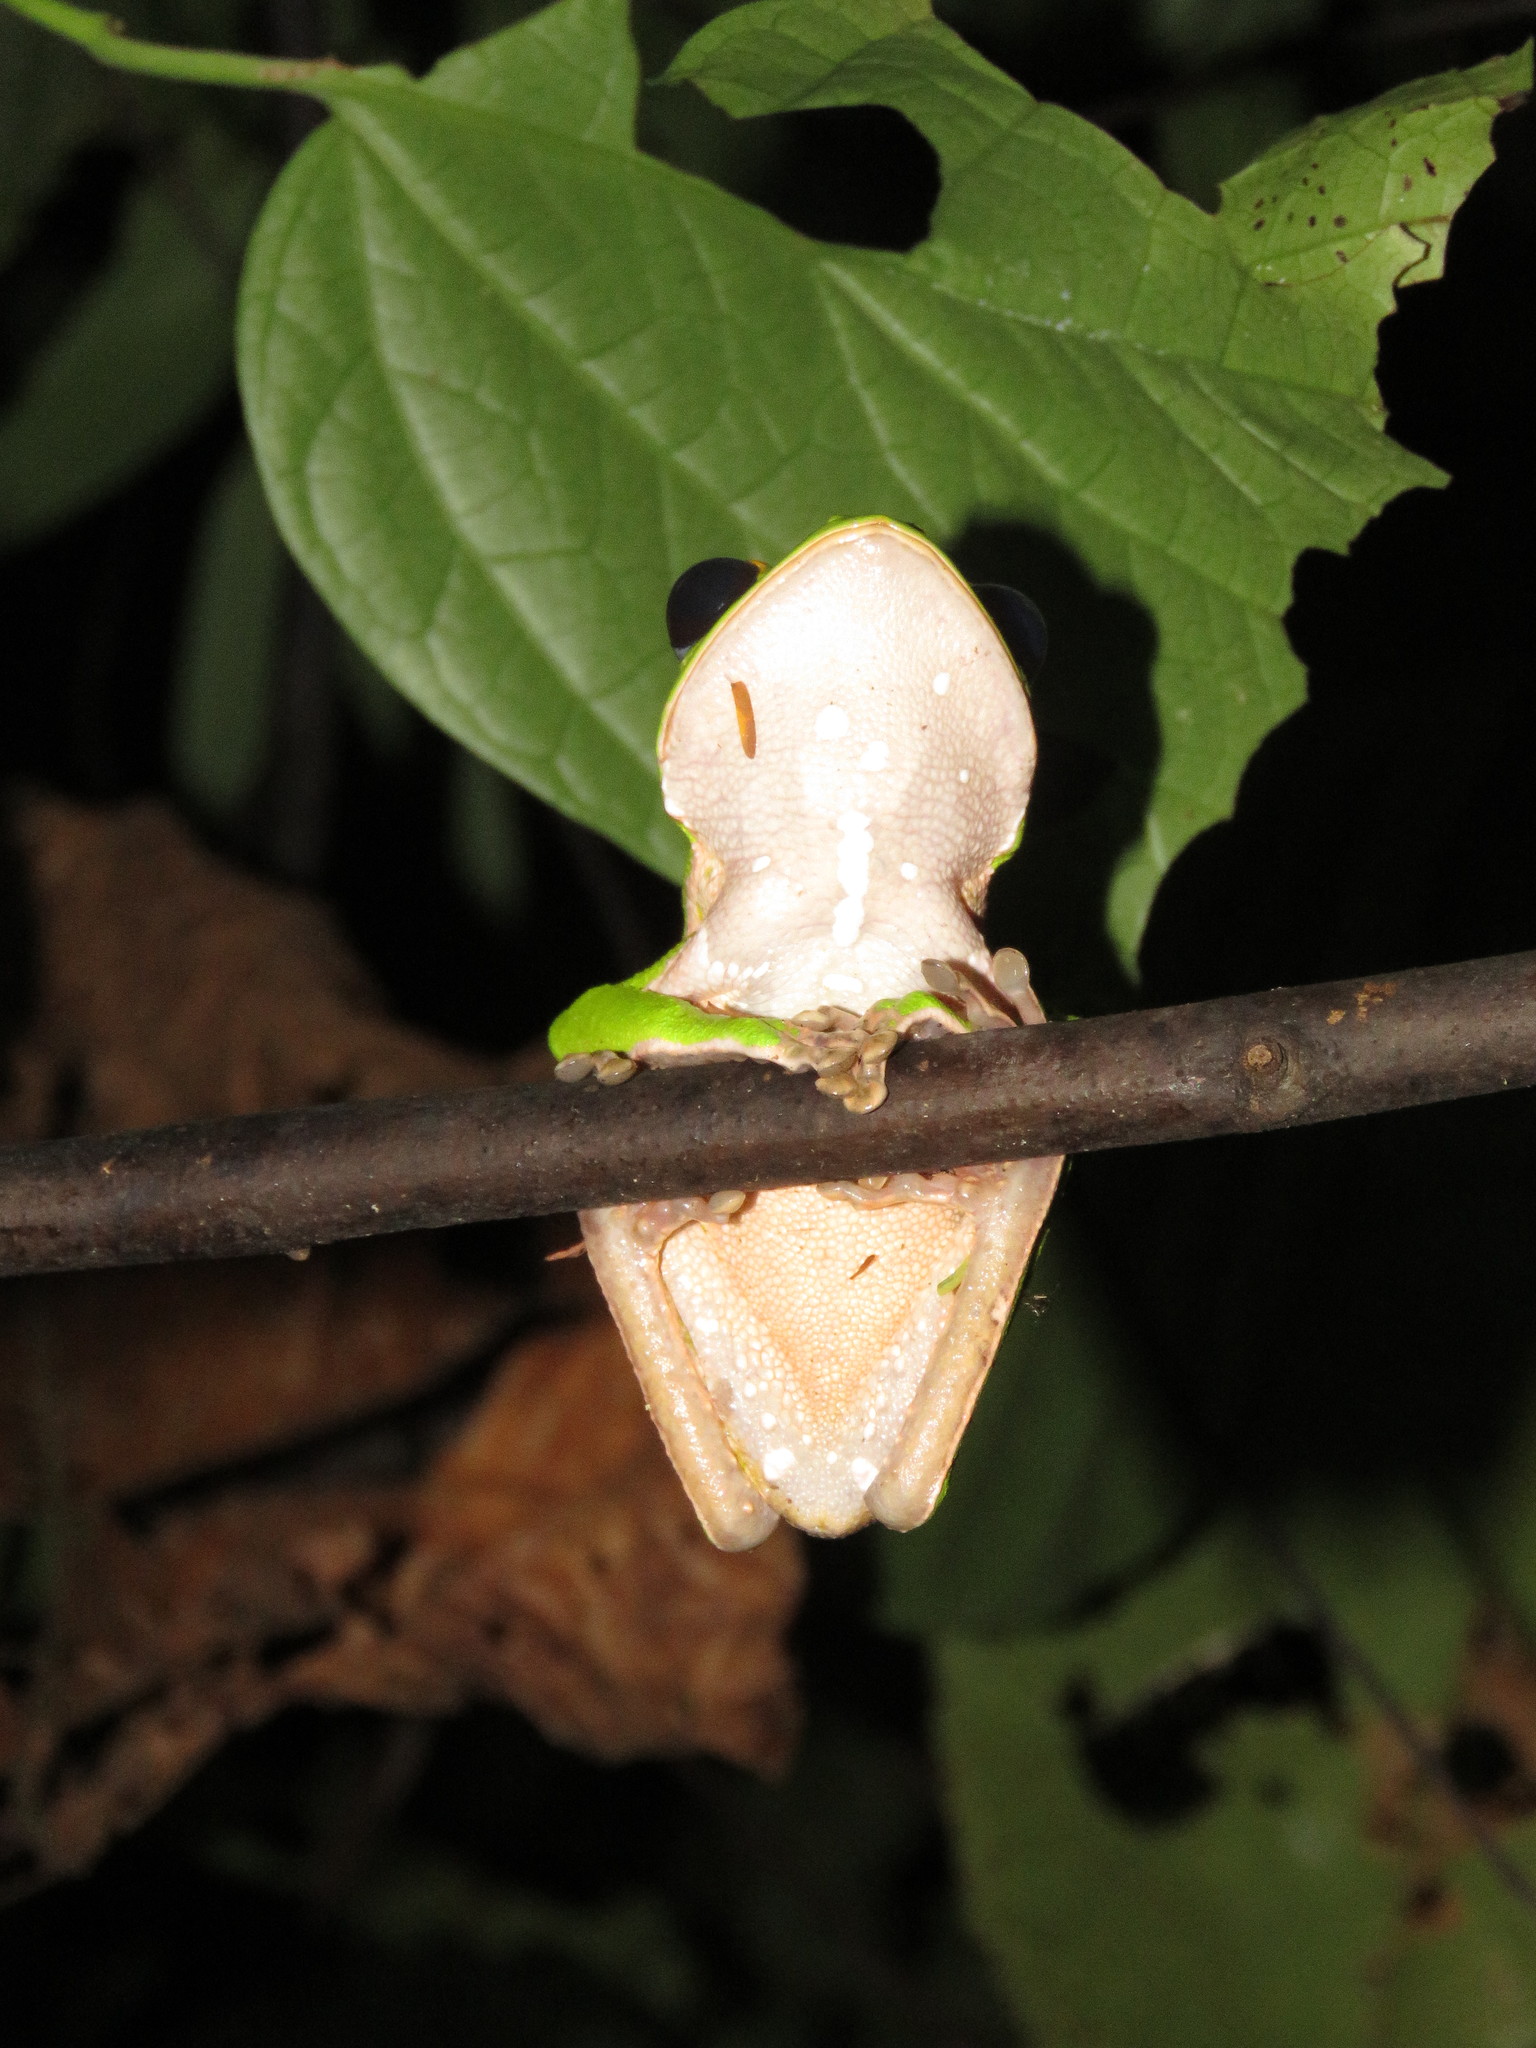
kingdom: Animalia
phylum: Chordata
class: Amphibia
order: Anura
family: Phyllomedusidae
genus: Phyllomedusa
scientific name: Phyllomedusa camba
